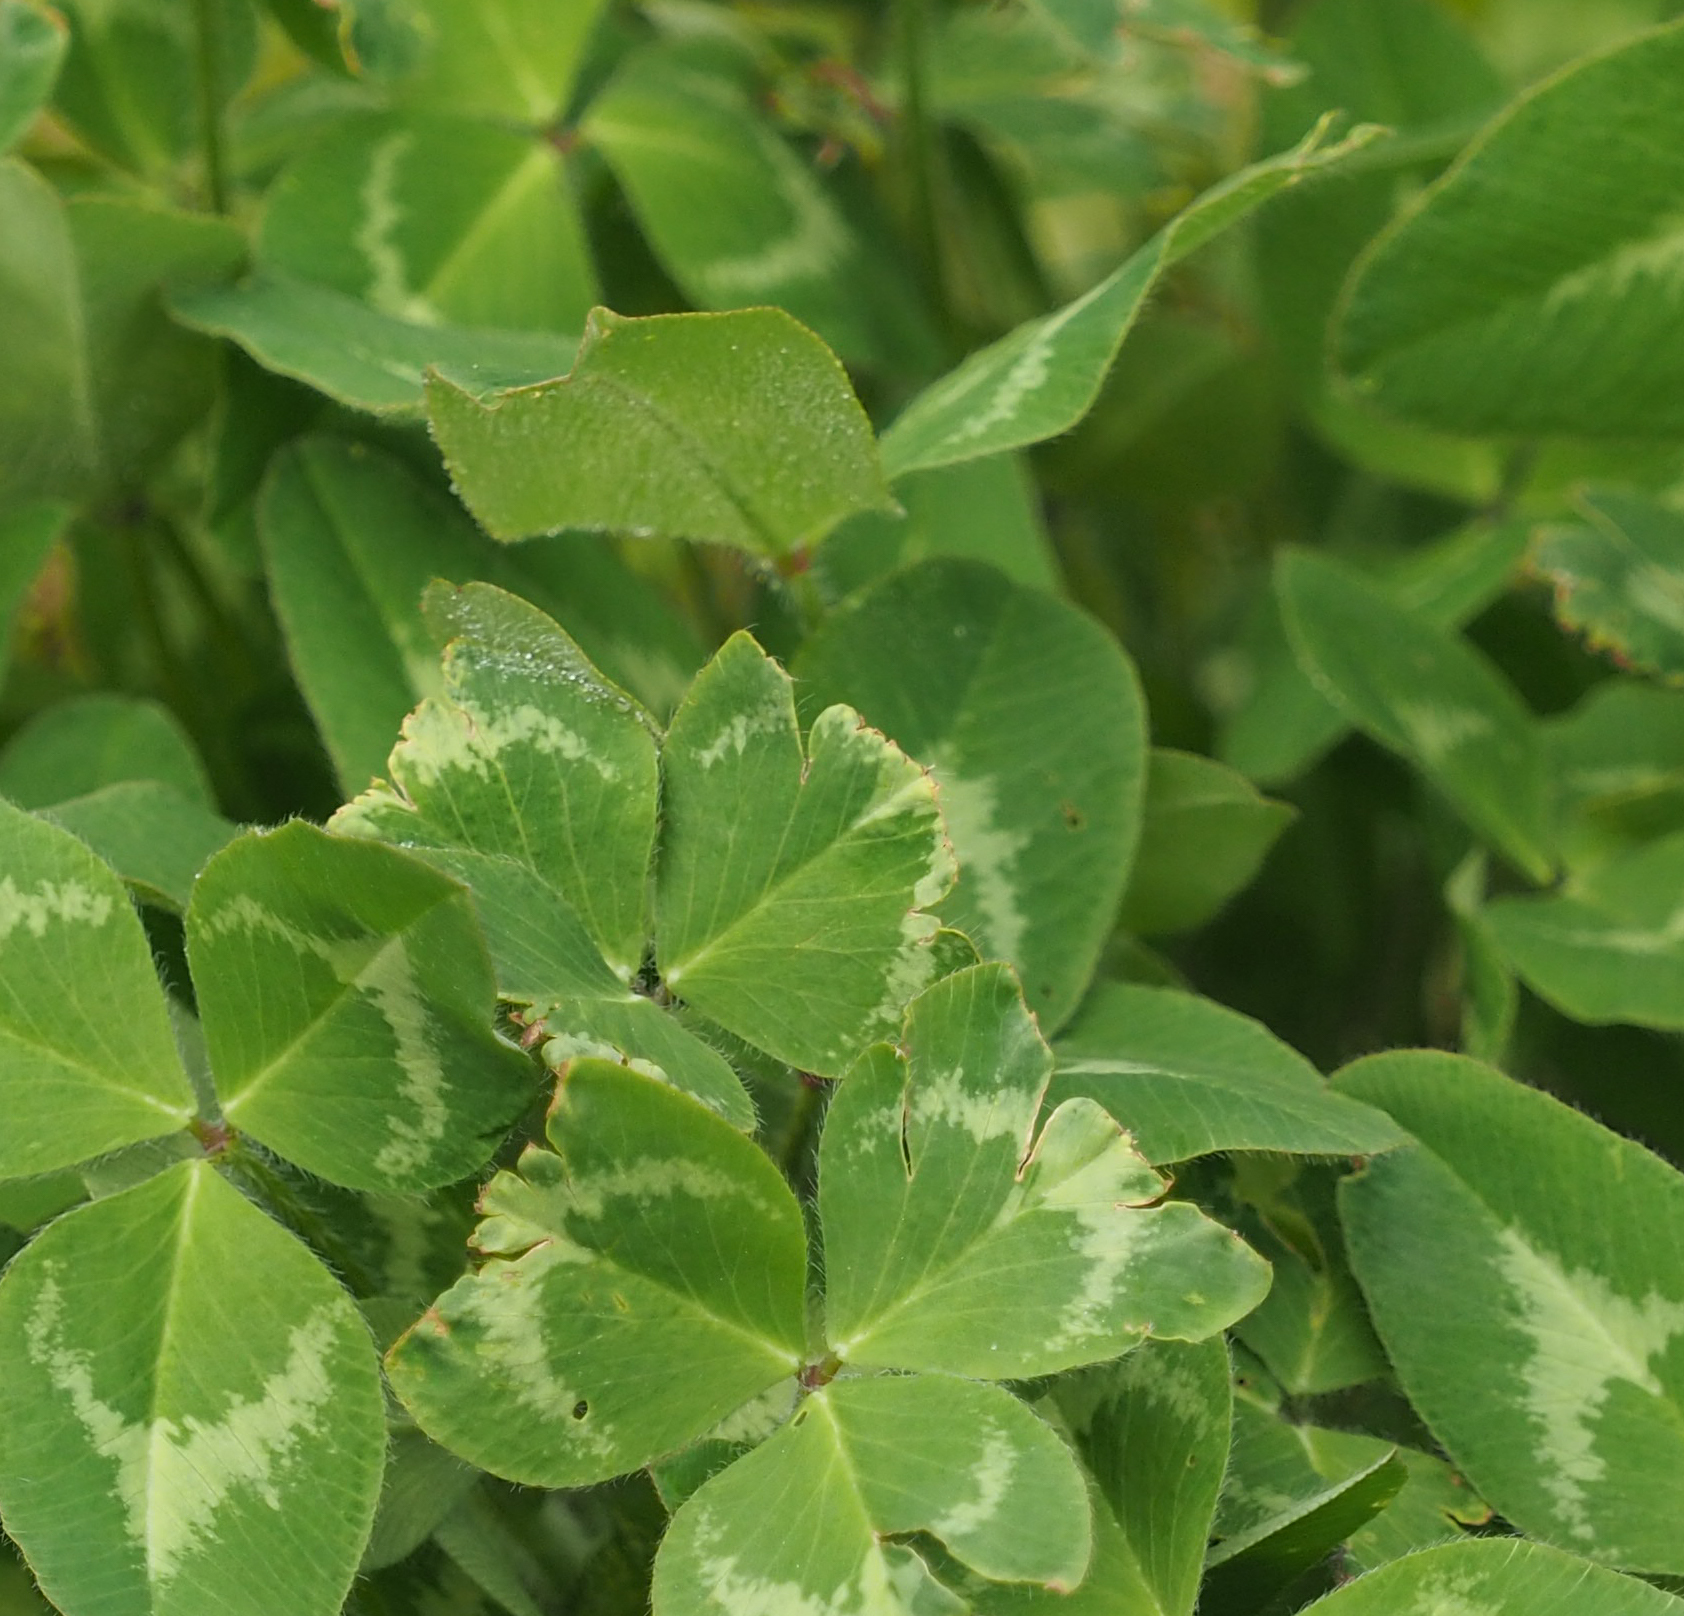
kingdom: Plantae
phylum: Tracheophyta
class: Magnoliopsida
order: Fabales
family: Fabaceae
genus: Trifolium
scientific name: Trifolium pratense
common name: Red clover
